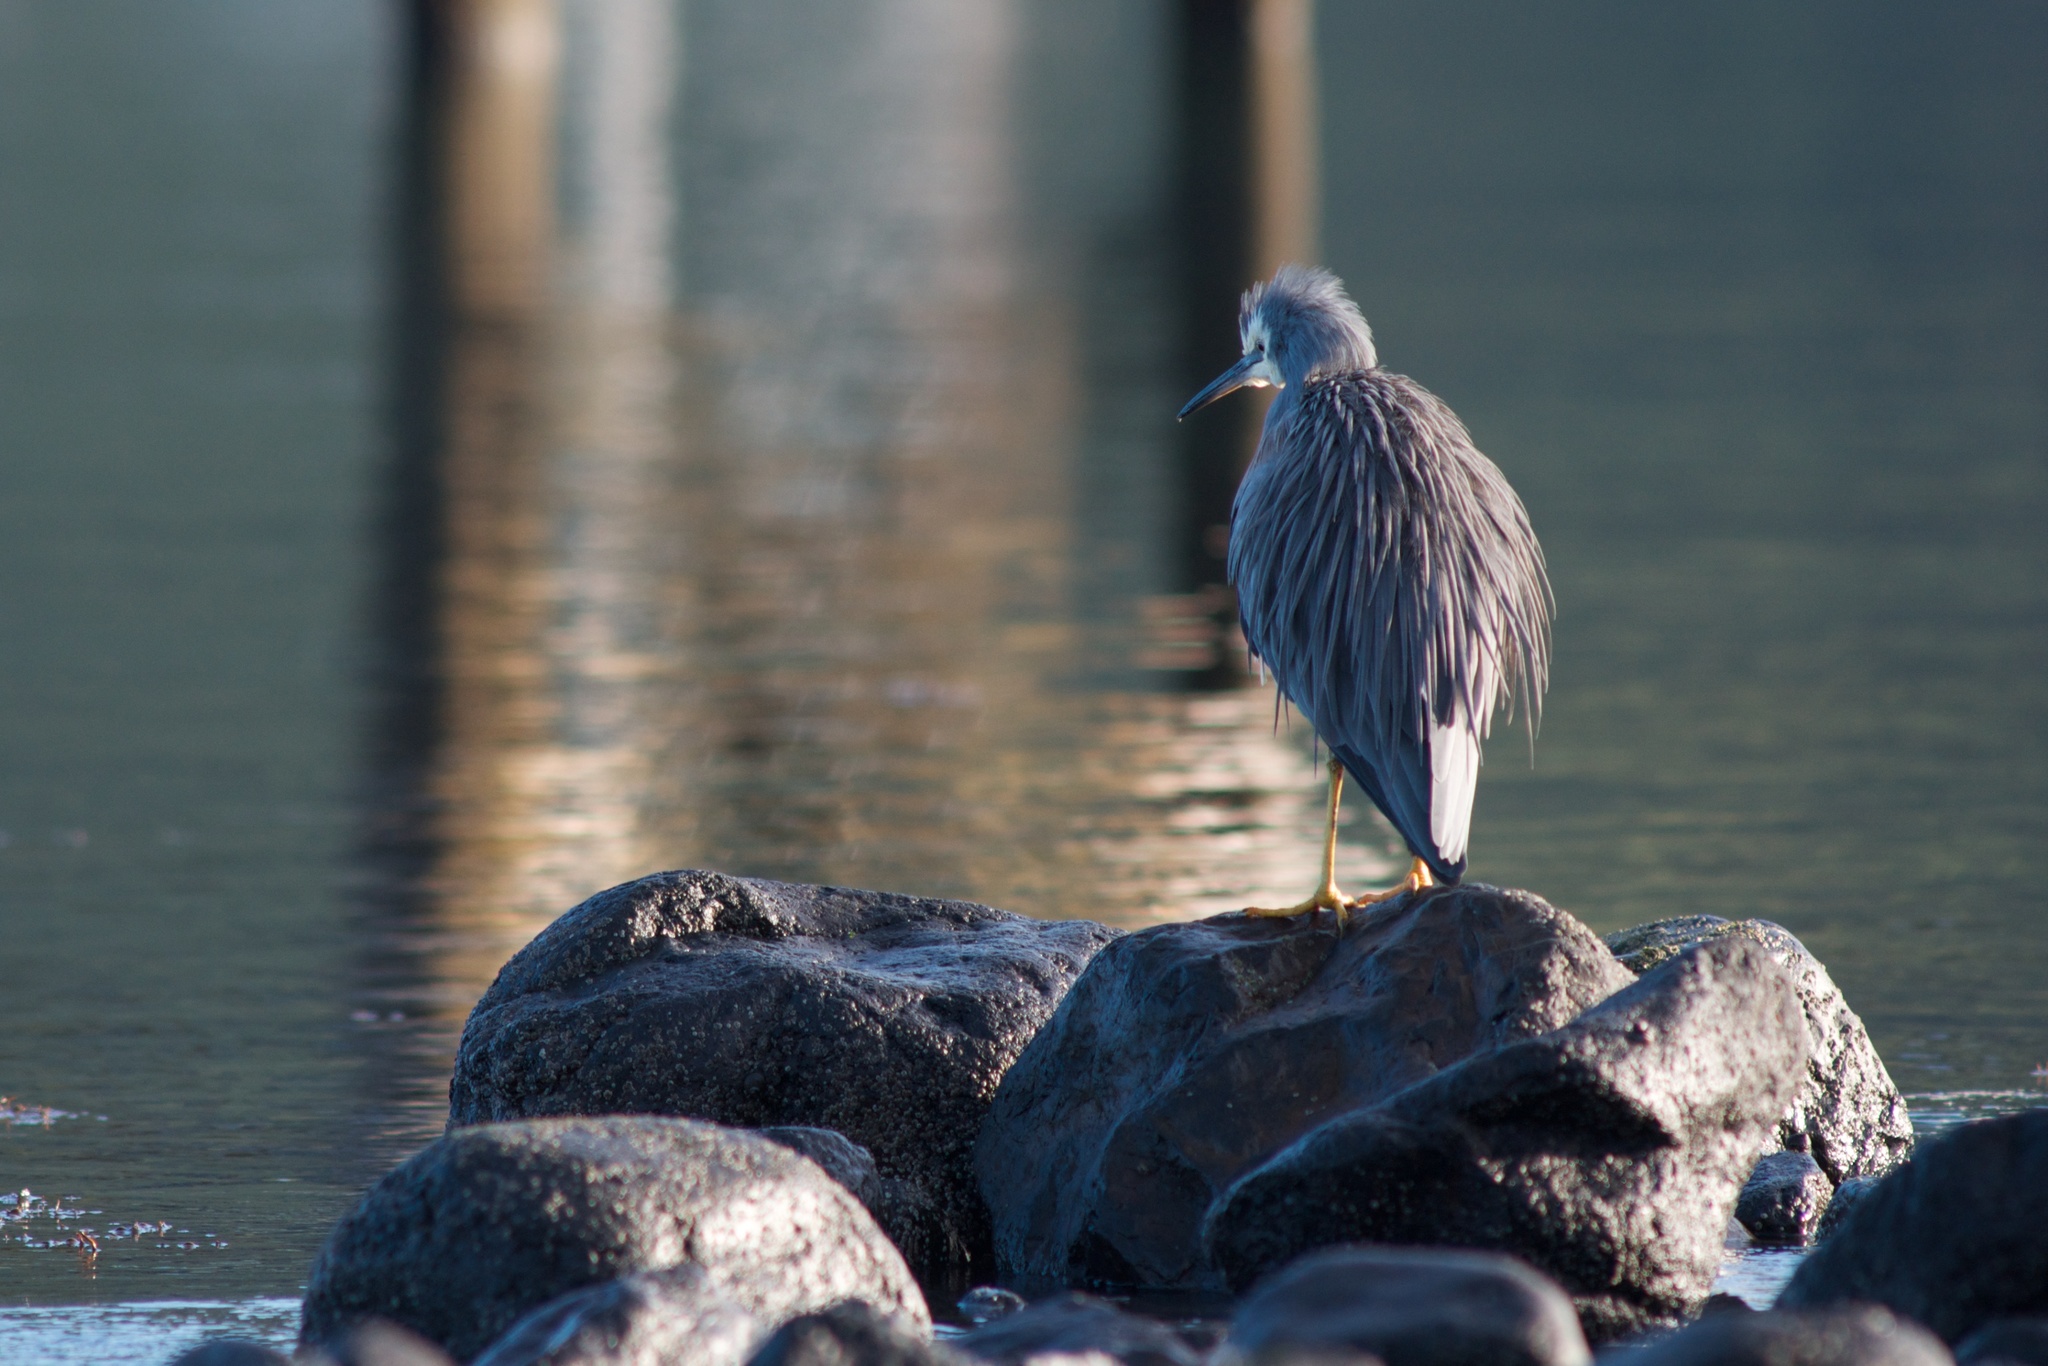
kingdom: Animalia
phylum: Chordata
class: Aves
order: Pelecaniformes
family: Ardeidae
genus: Egretta
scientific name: Egretta novaehollandiae
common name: White-faced heron
